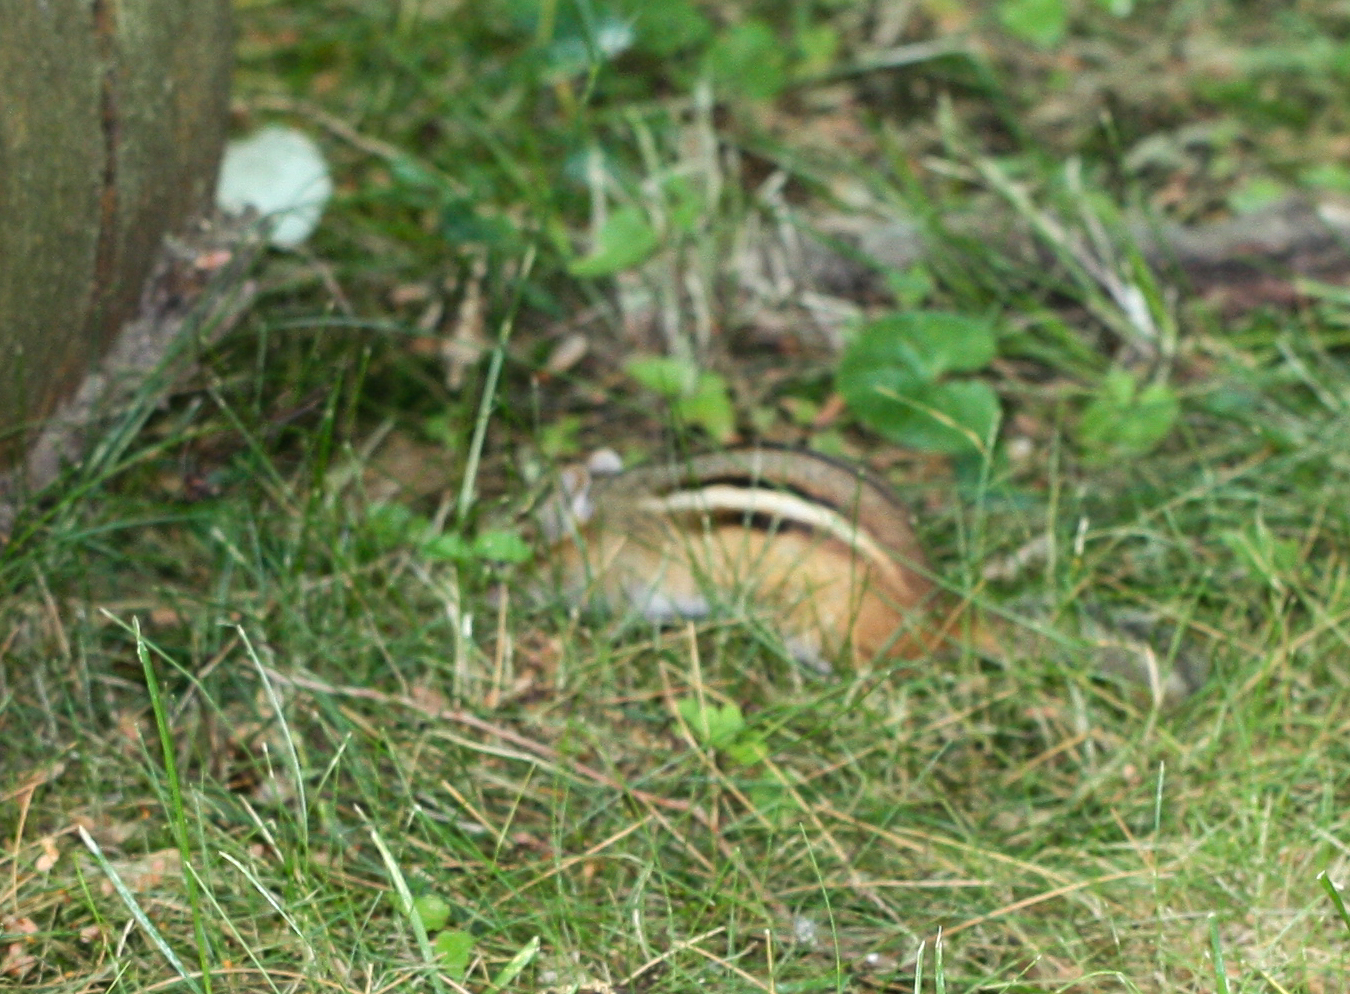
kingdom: Animalia
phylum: Chordata
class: Mammalia
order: Rodentia
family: Sciuridae
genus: Tamias
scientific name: Tamias striatus
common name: Eastern chipmunk
